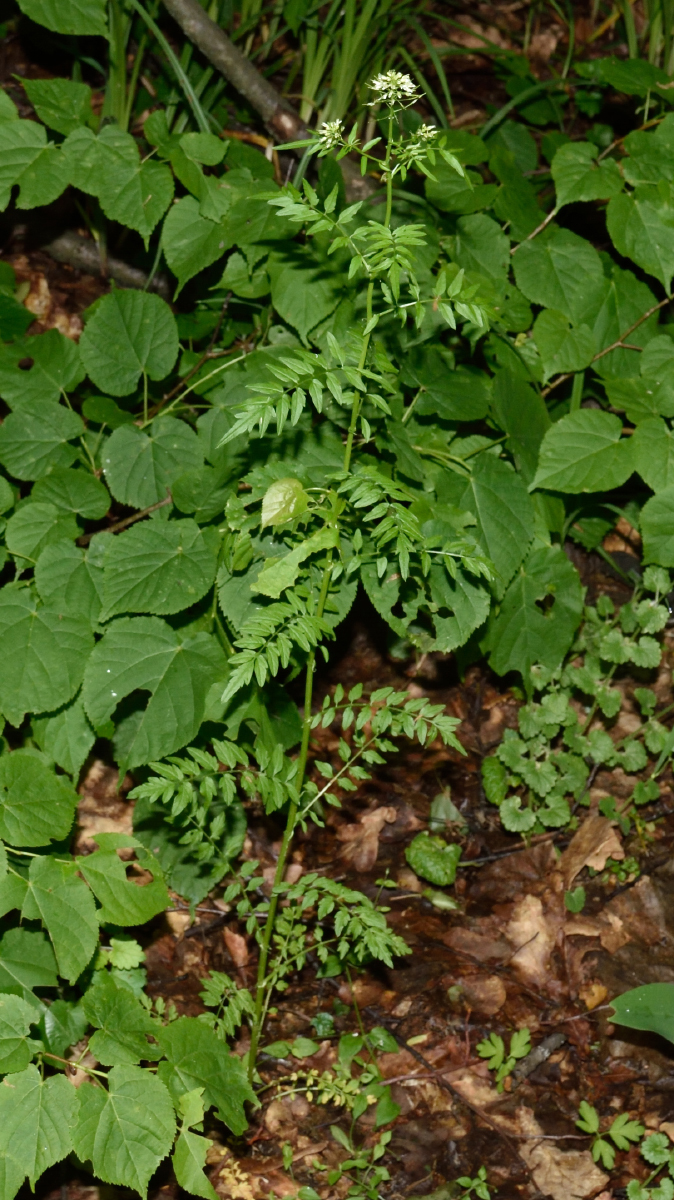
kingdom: Plantae
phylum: Tracheophyta
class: Magnoliopsida
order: Brassicales
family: Brassicaceae
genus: Cardamine
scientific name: Cardamine impatiens
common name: Narrow-leaved bitter-cress
